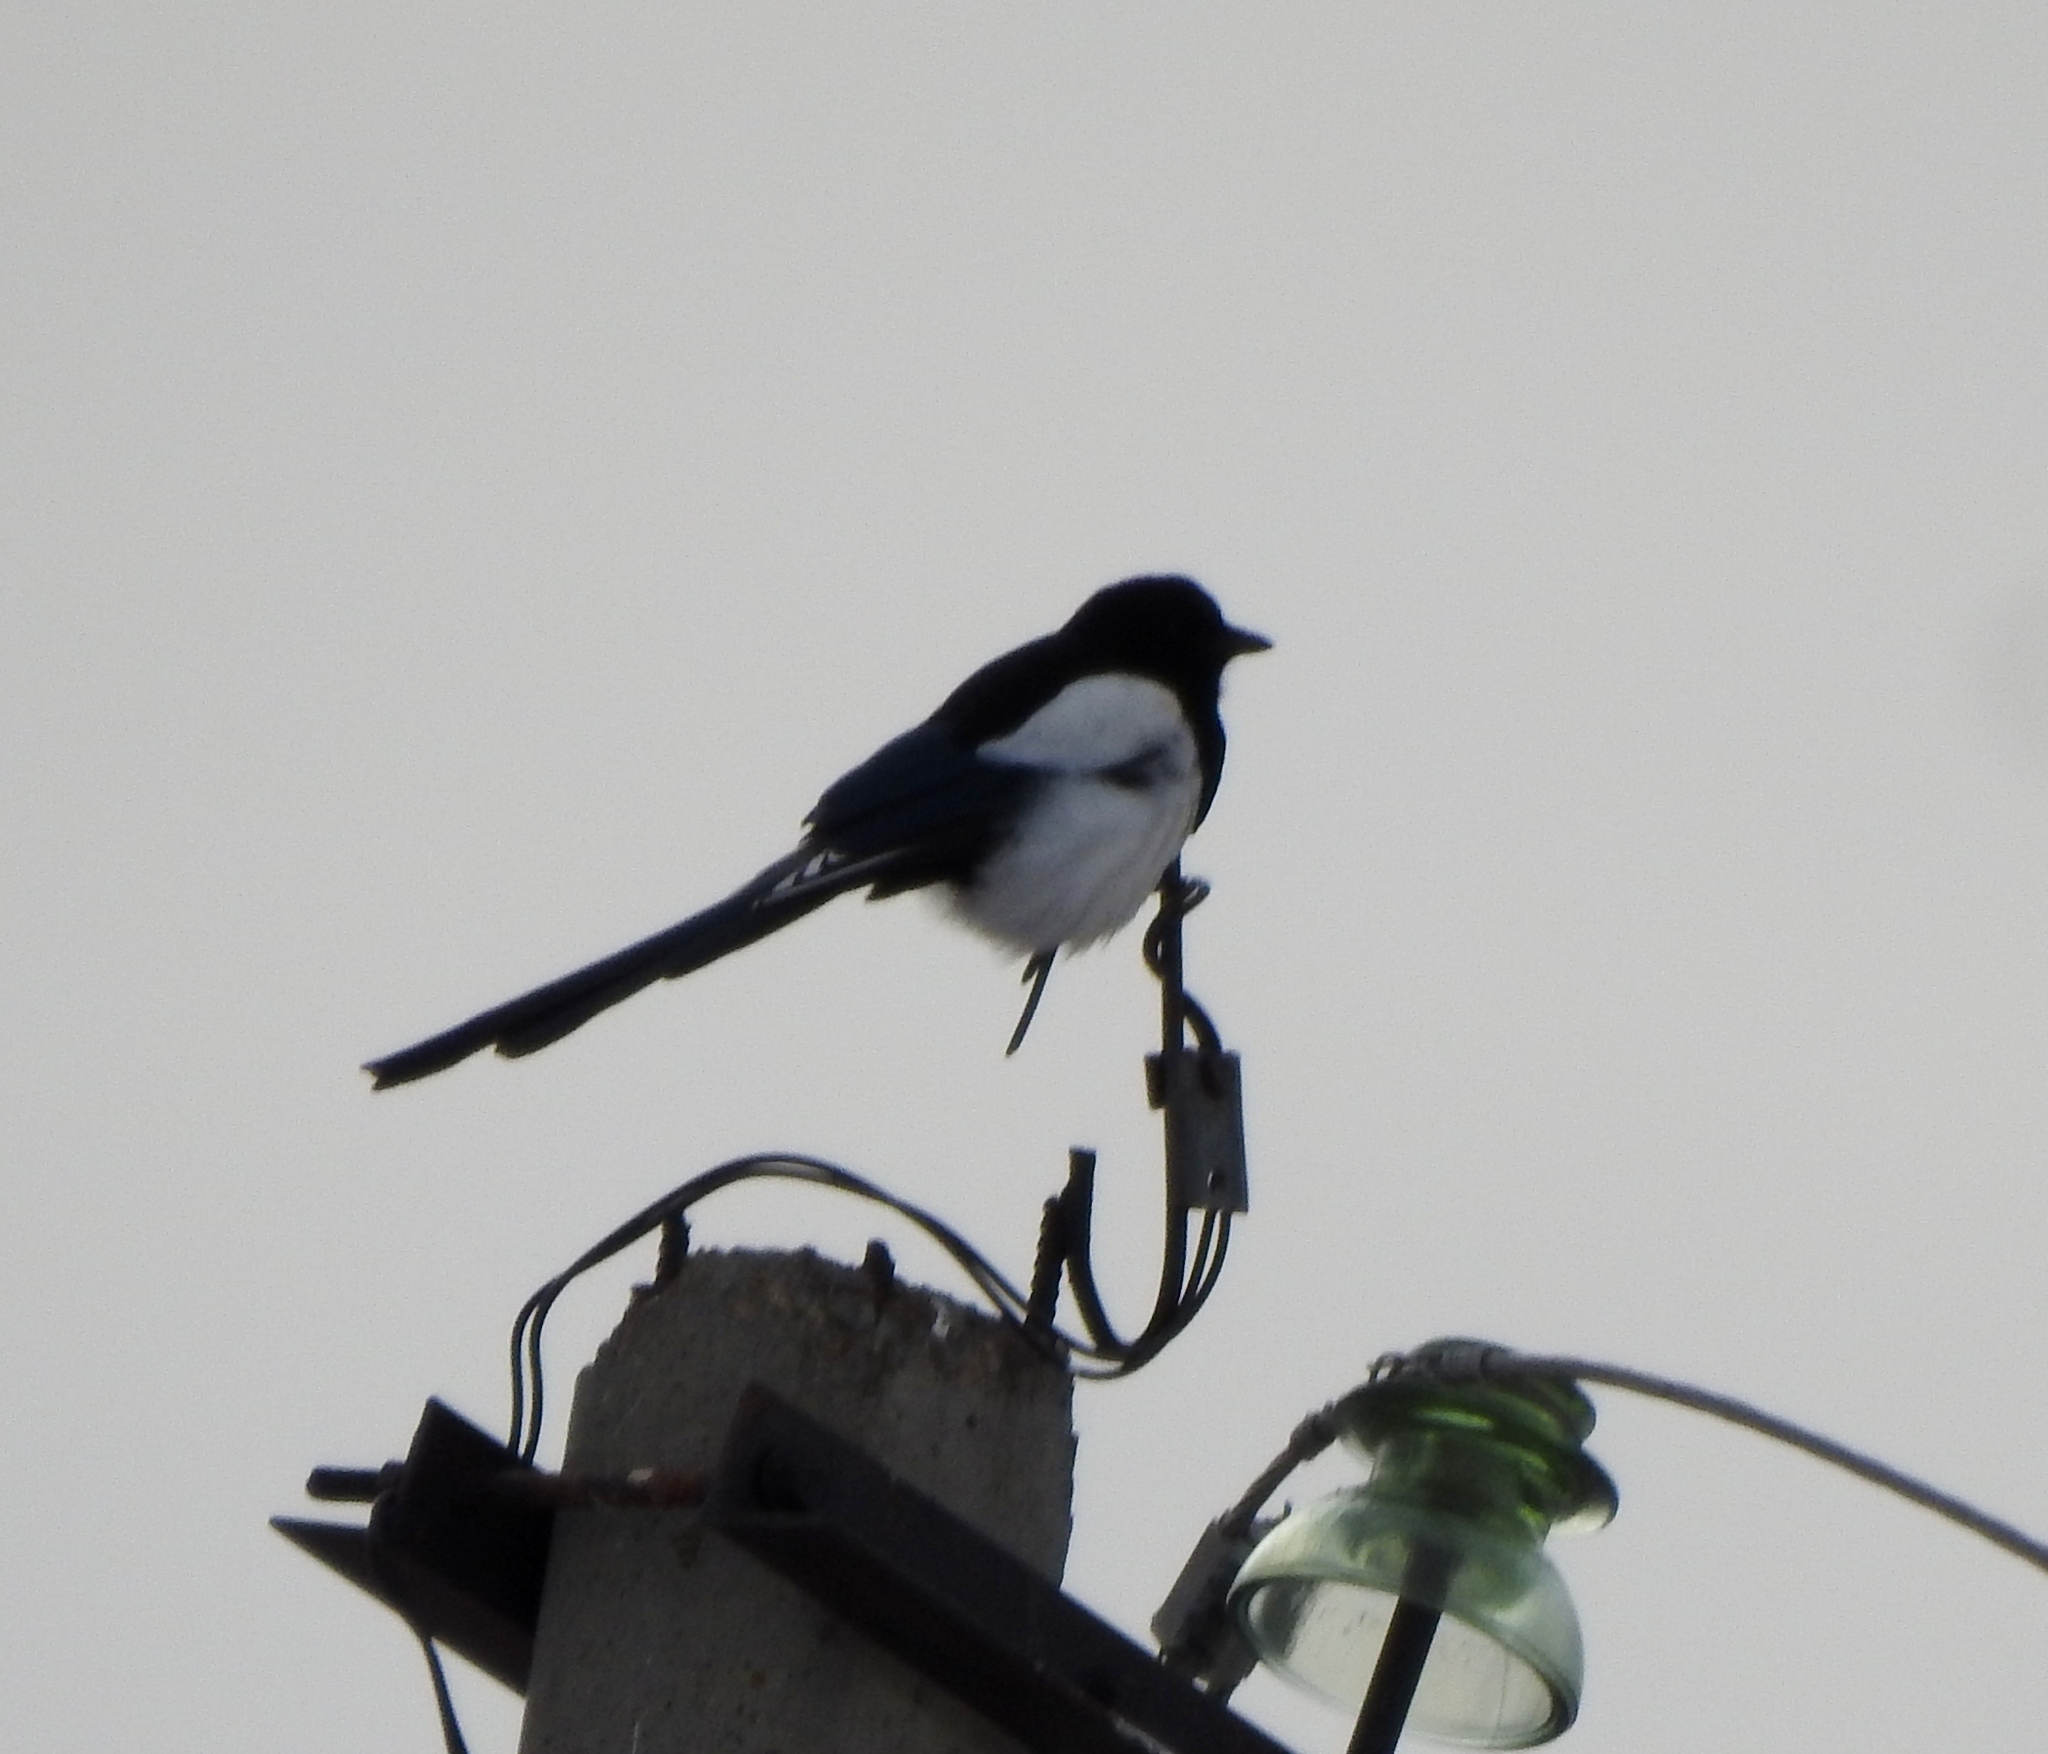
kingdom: Animalia
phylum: Chordata
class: Aves
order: Passeriformes
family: Corvidae
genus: Pica
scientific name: Pica pica
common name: Eurasian magpie
